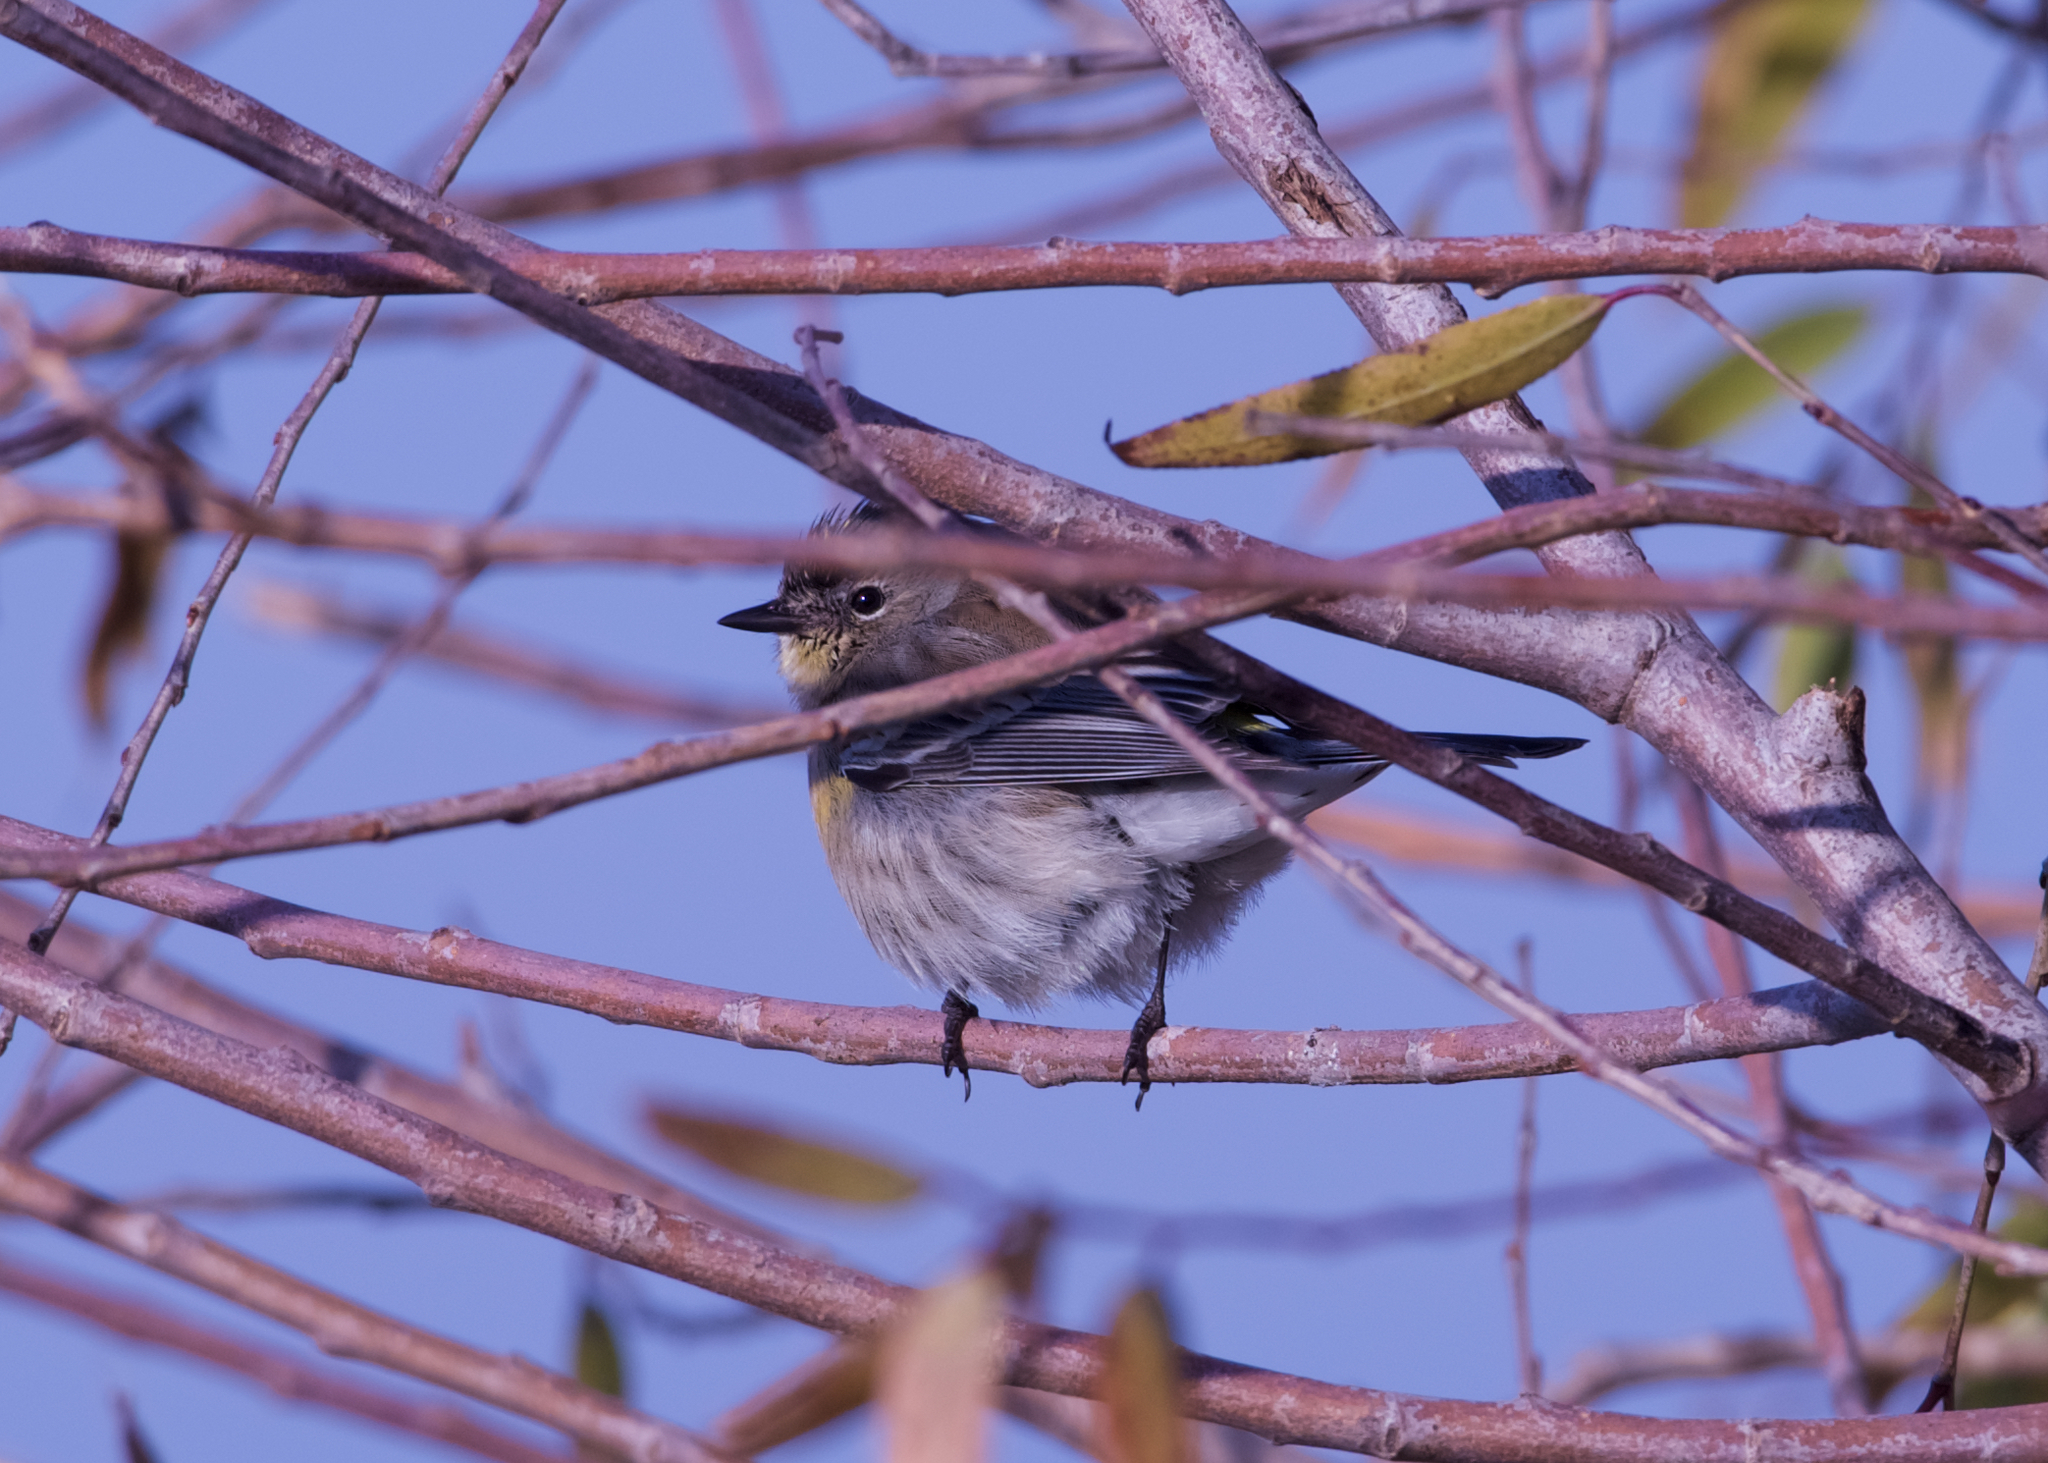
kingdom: Animalia
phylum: Chordata
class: Aves
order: Passeriformes
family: Parulidae
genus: Setophaga
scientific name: Setophaga coronata
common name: Myrtle warbler
